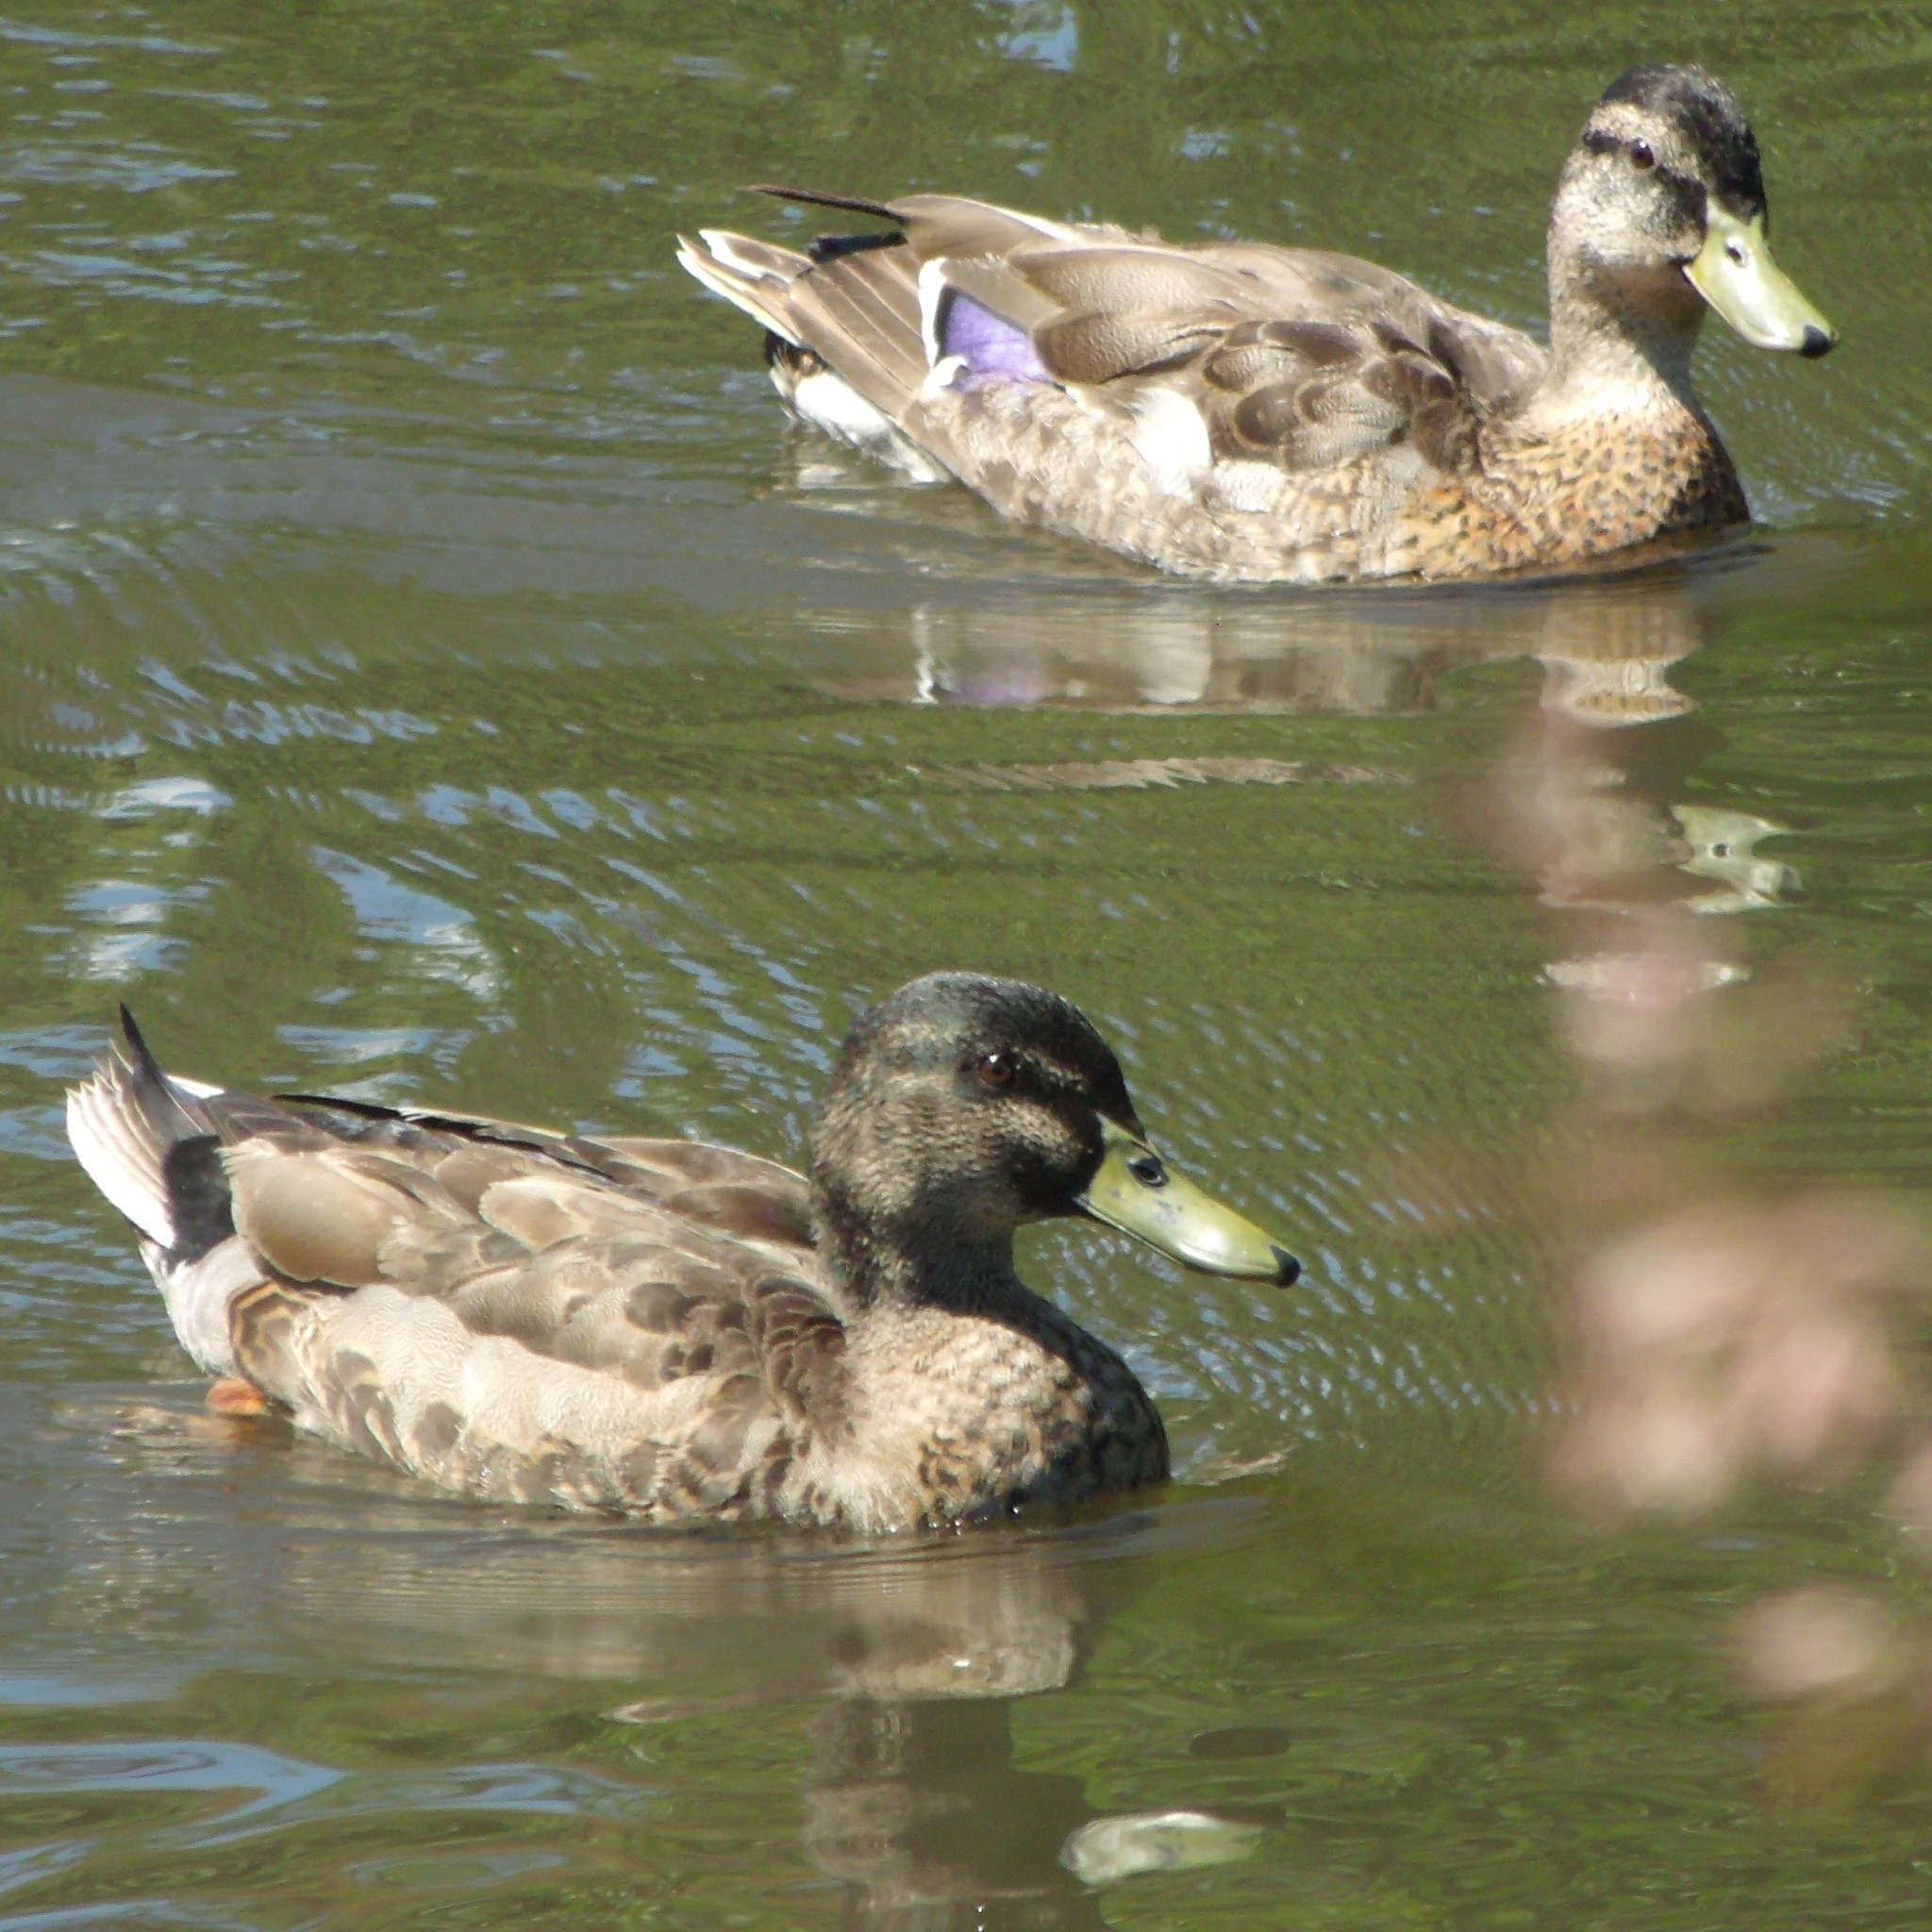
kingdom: Animalia
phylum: Chordata
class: Aves
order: Anseriformes
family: Anatidae
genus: Anas
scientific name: Anas
